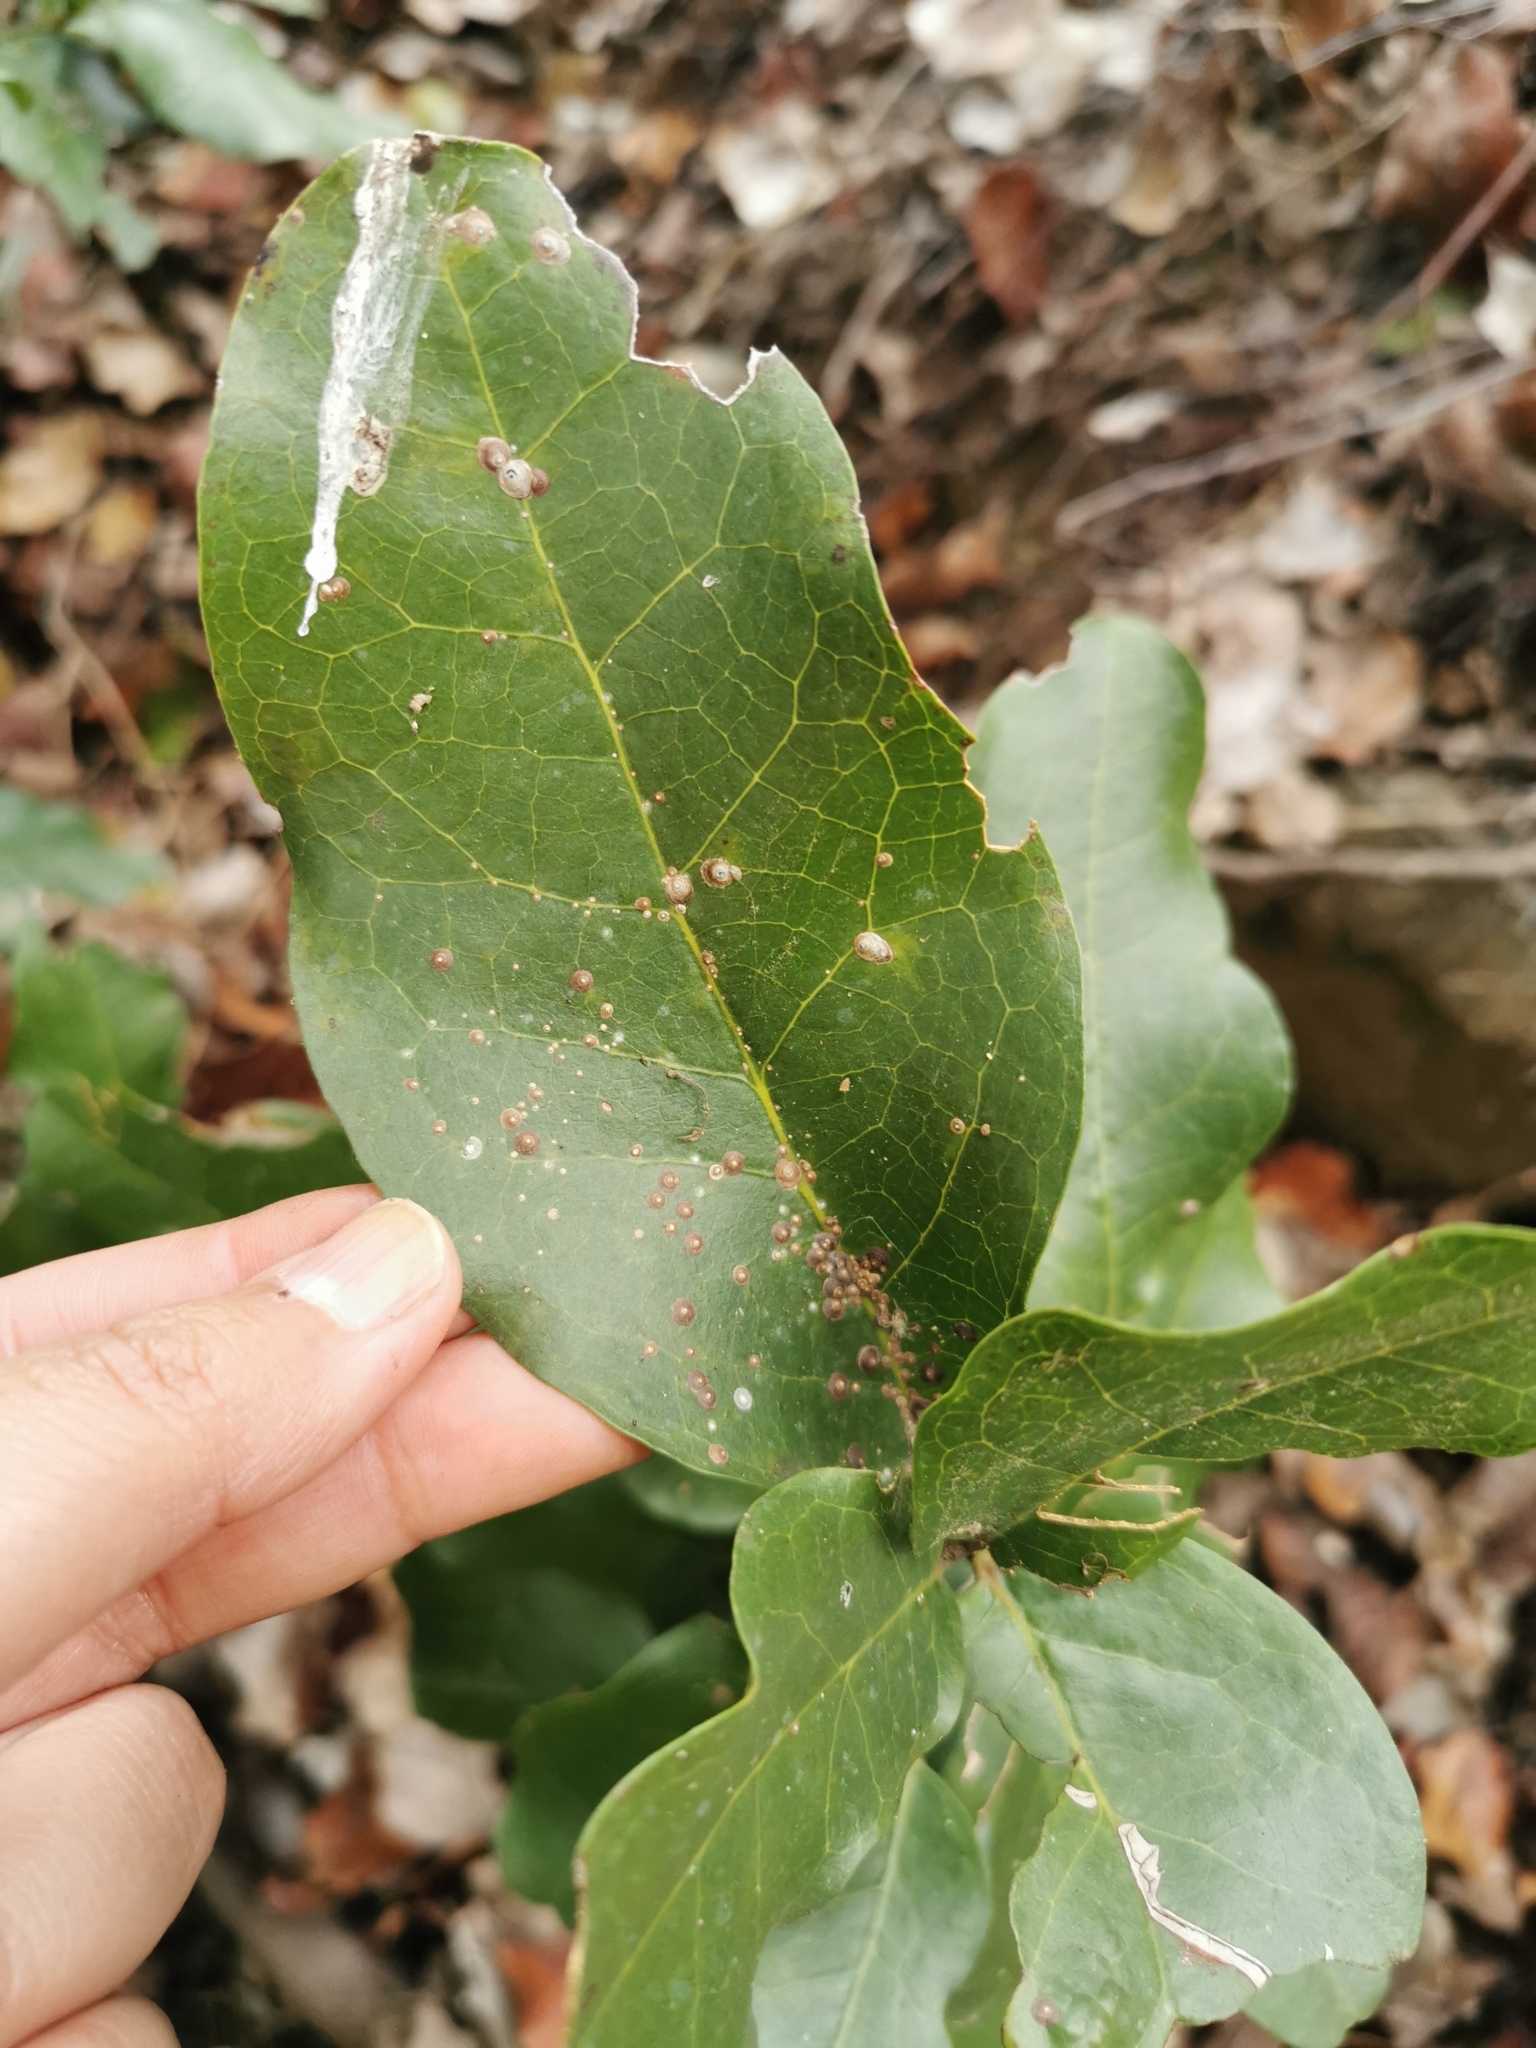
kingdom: Plantae
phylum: Tracheophyta
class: Magnoliopsida
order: Laurales
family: Lauraceae
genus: Beilschmiedia
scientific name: Beilschmiedia miersii
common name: Bellota
